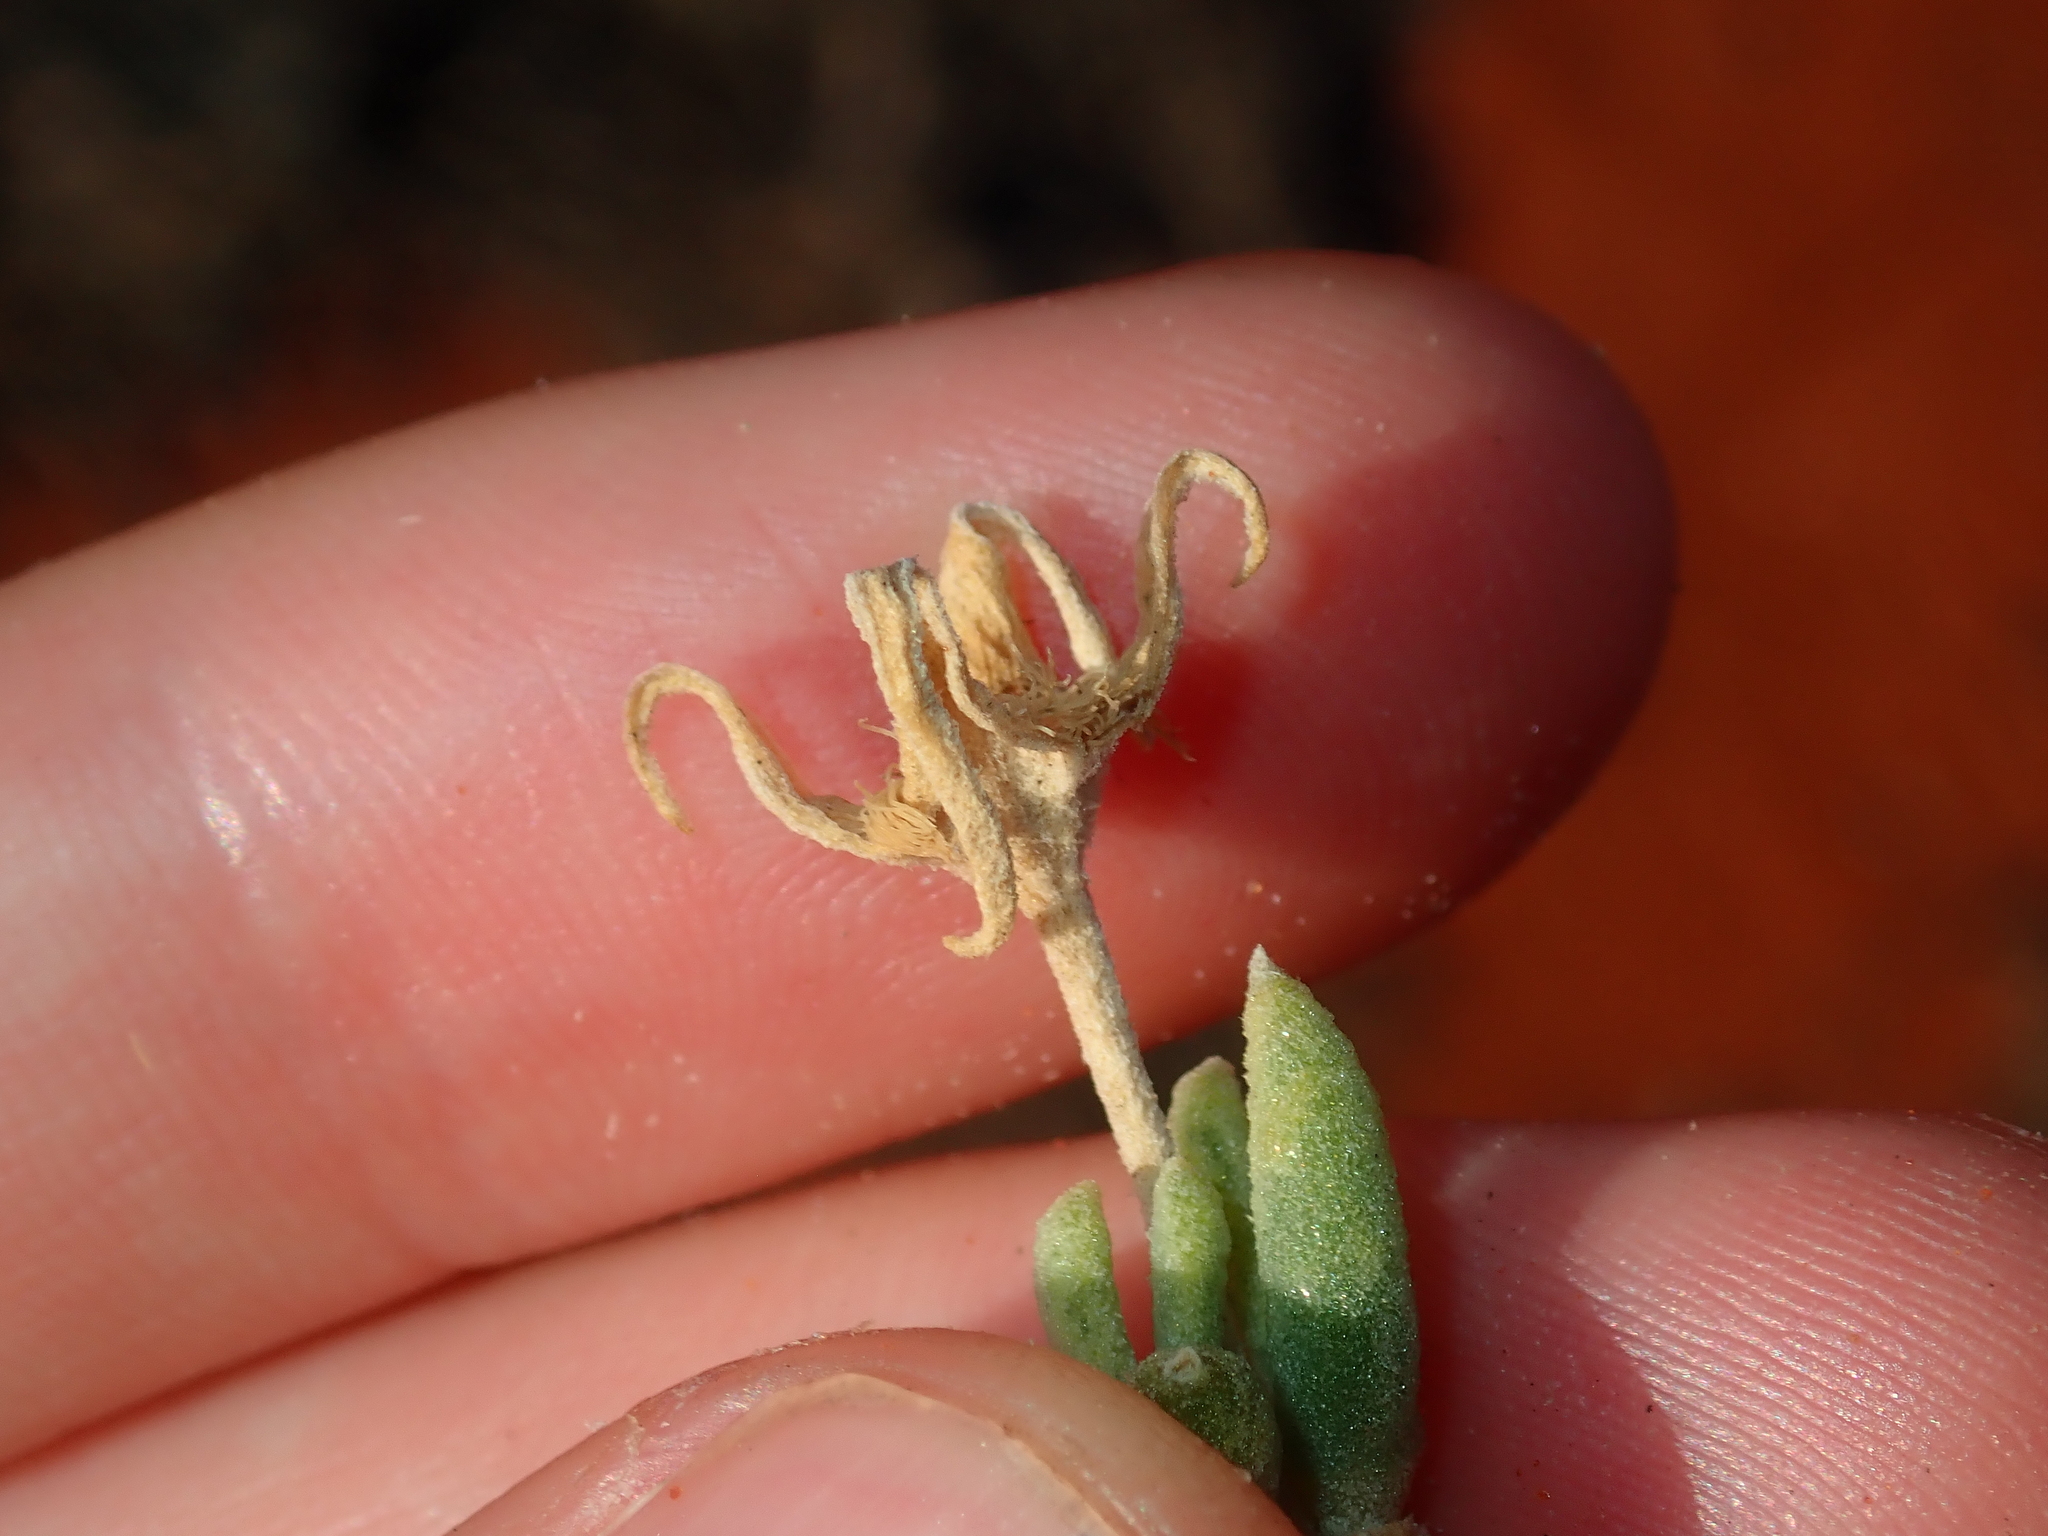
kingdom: Plantae
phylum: Tracheophyta
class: Magnoliopsida
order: Caryophyllales
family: Aizoaceae
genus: Gunniopsis
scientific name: Gunniopsis quadrifida
